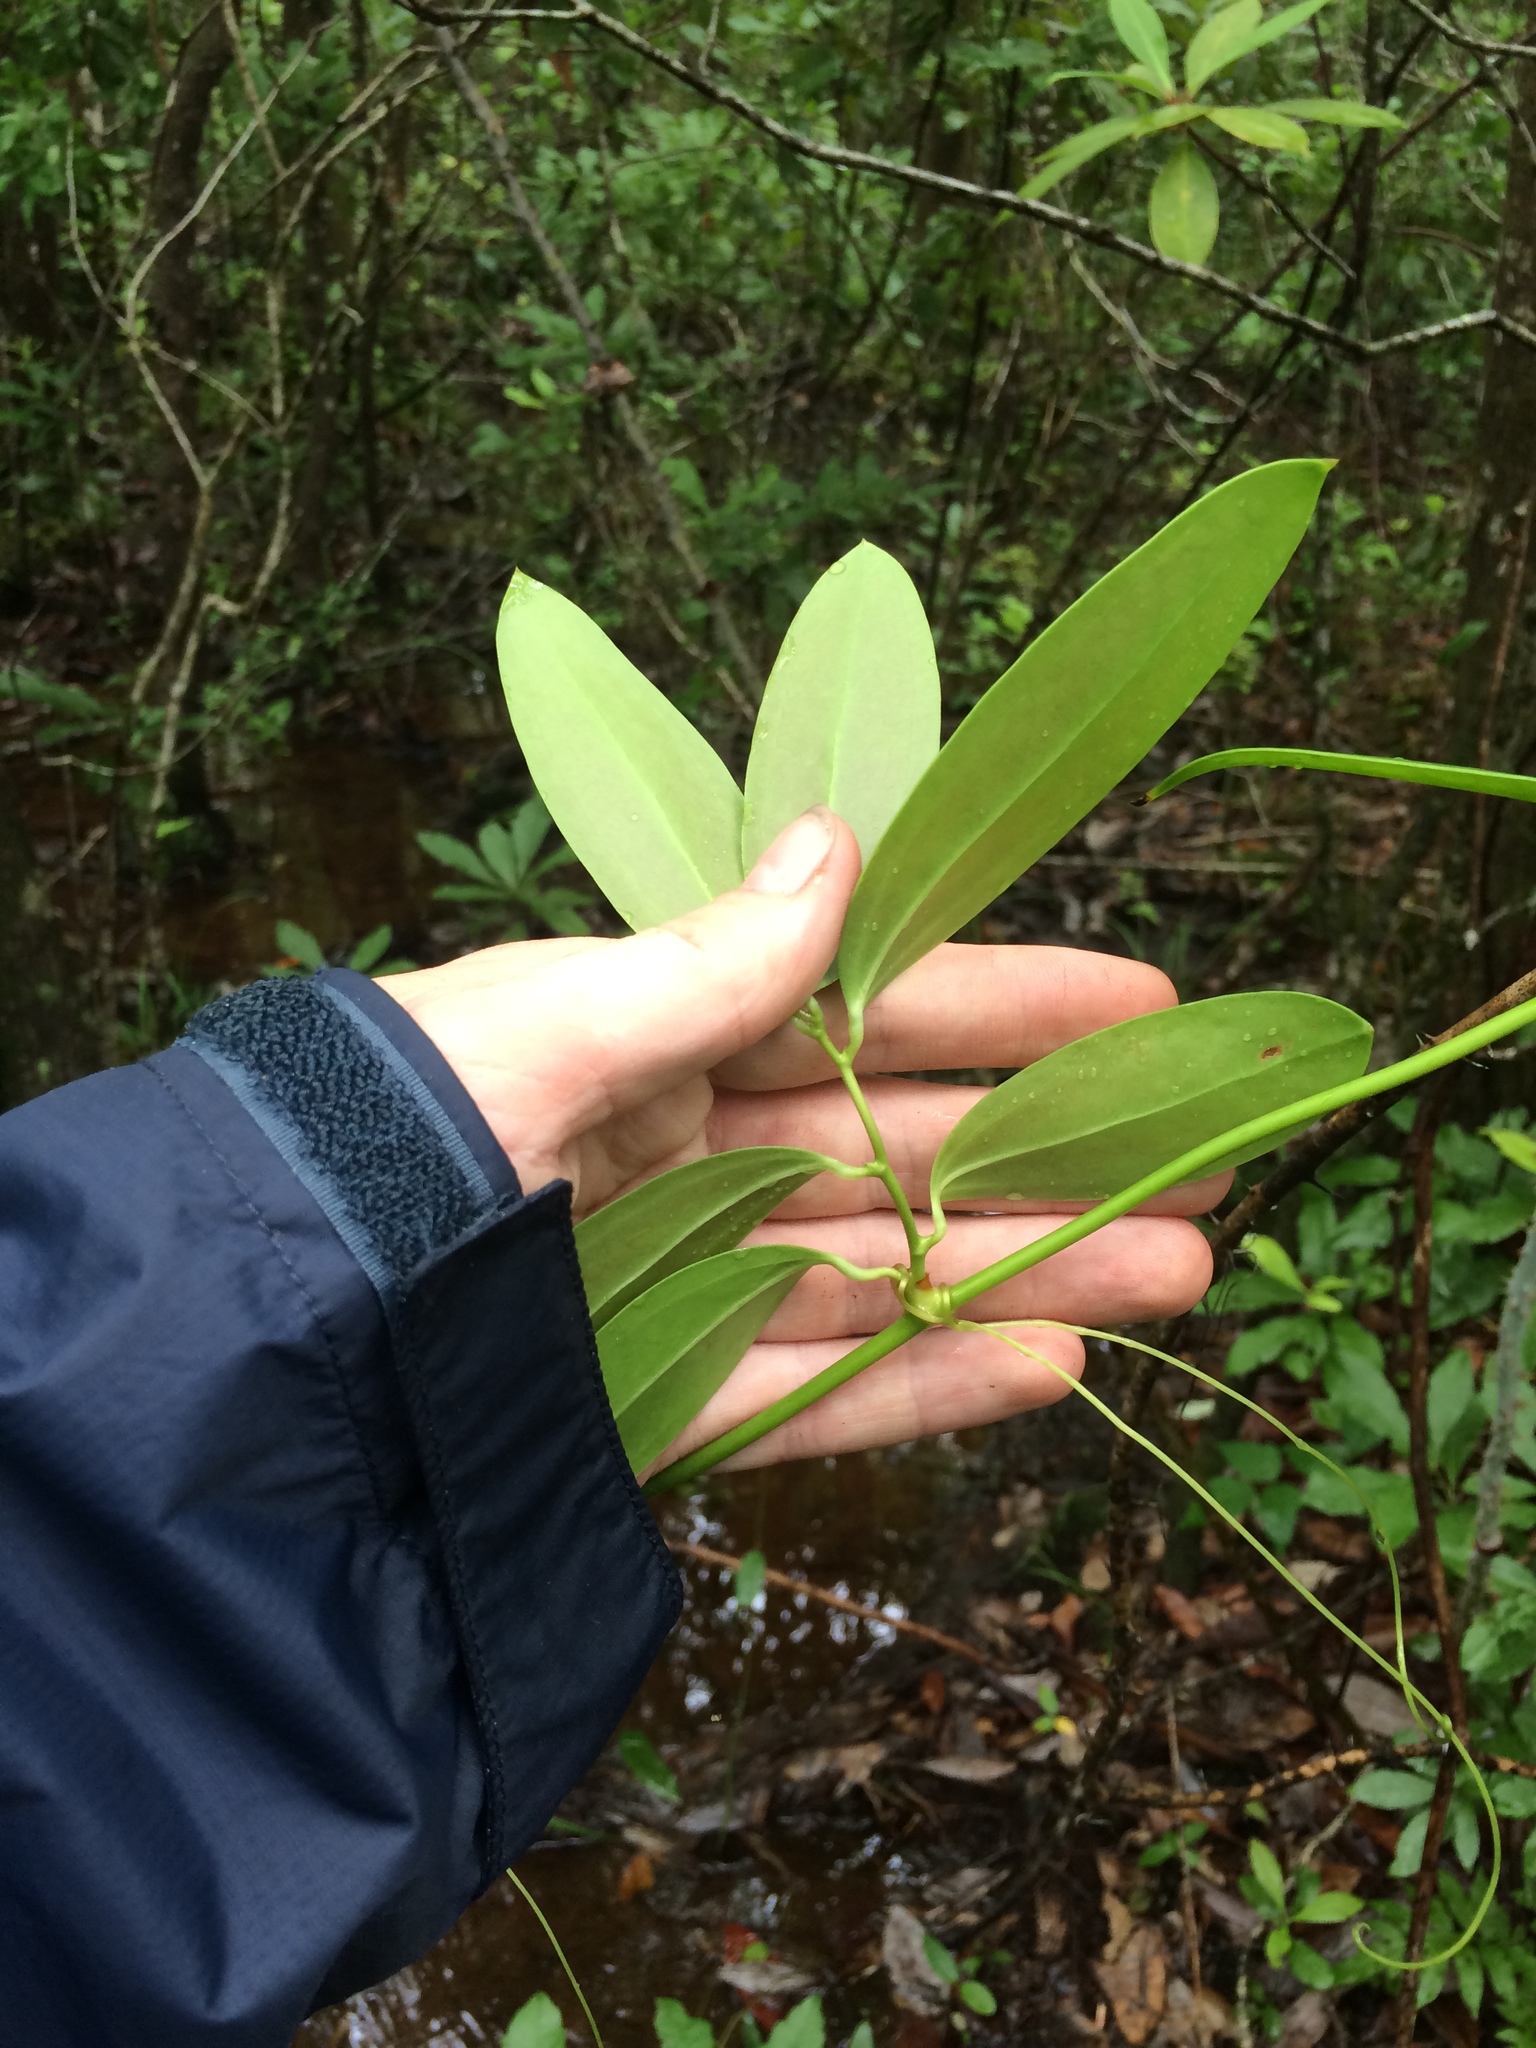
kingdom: Plantae
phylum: Tracheophyta
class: Liliopsida
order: Liliales
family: Smilacaceae
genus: Smilax
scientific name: Smilax laurifolia
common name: Bamboovine
